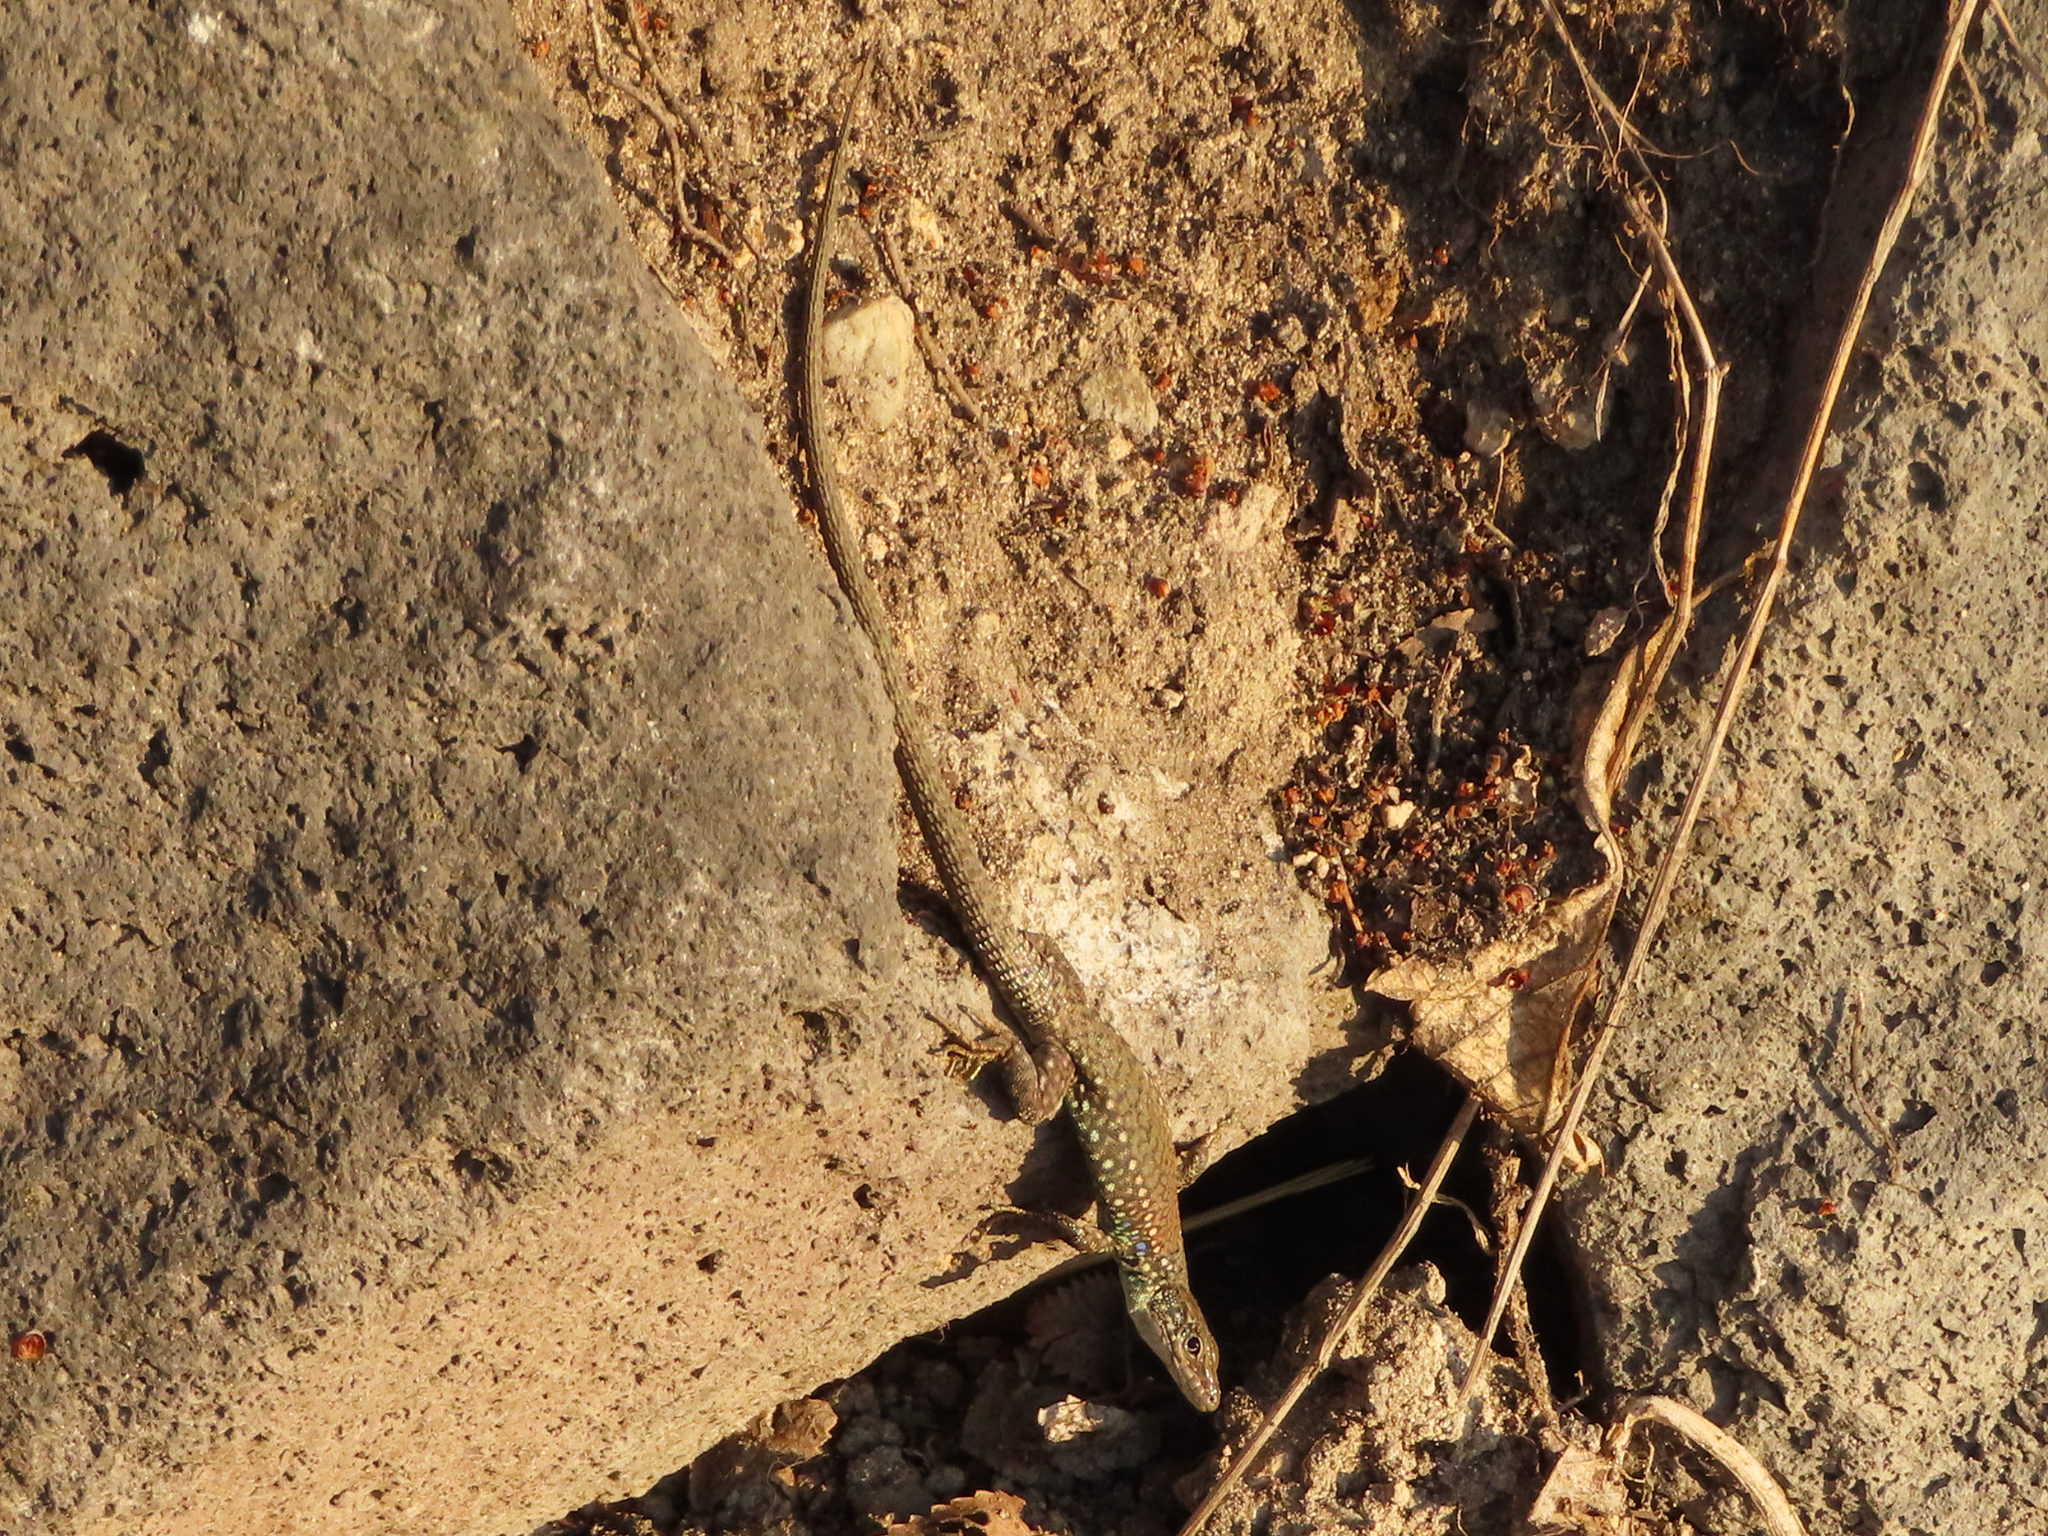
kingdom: Animalia
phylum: Chordata
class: Squamata
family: Lacertidae
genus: Darevskia
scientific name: Darevskia
